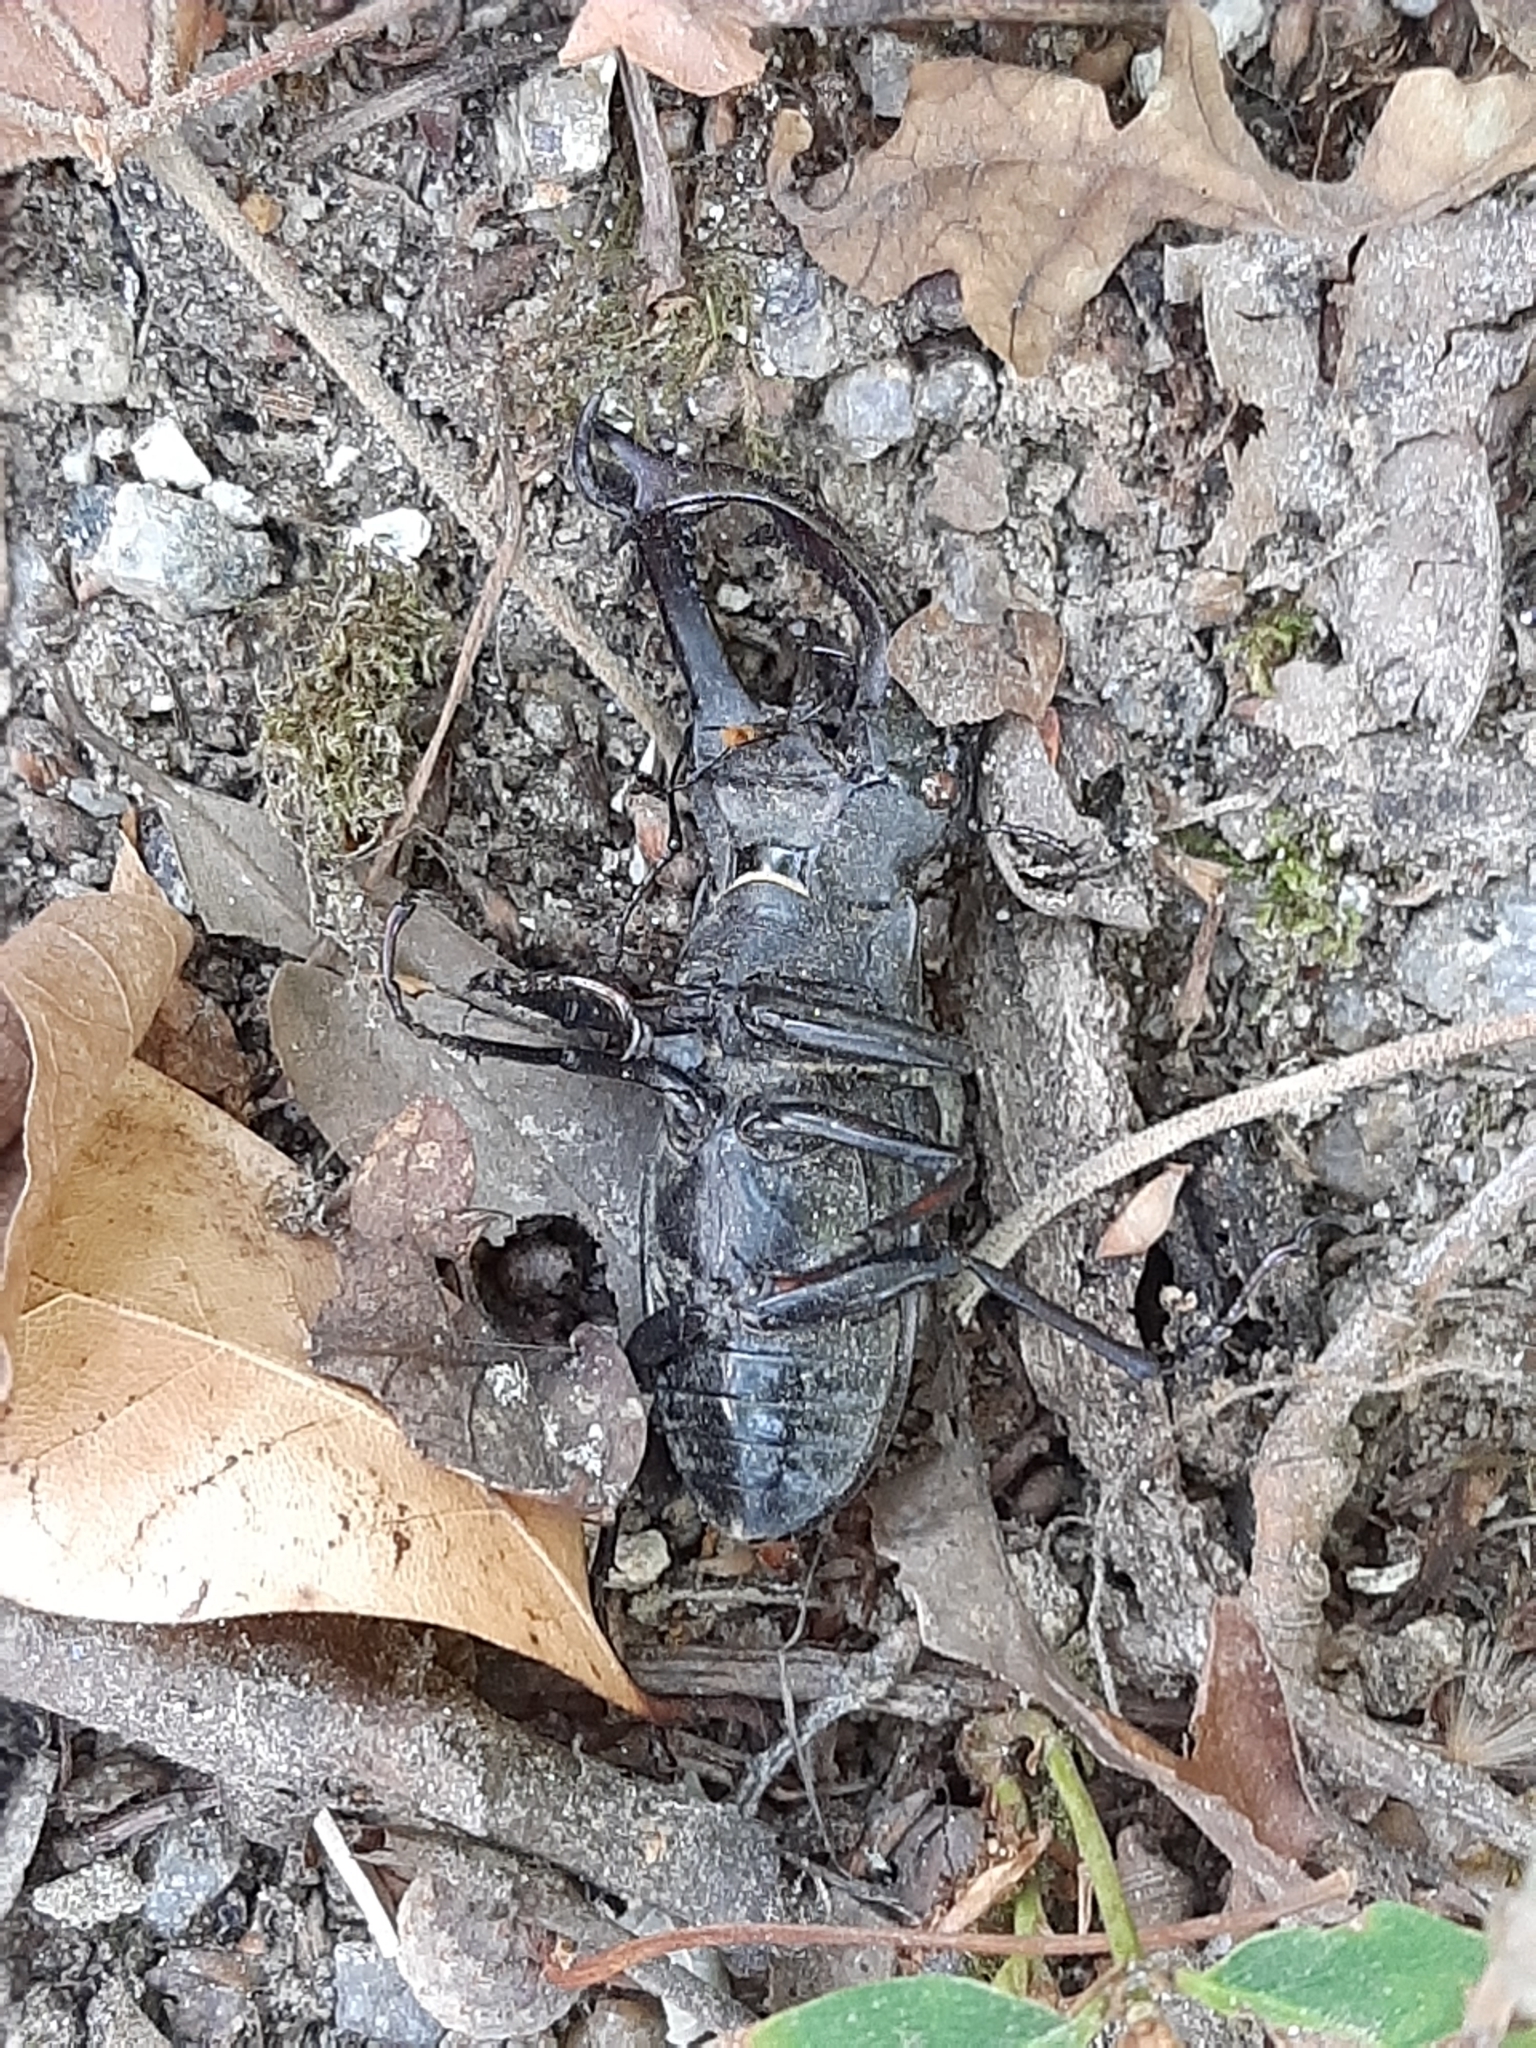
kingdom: Animalia
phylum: Arthropoda
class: Insecta
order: Coleoptera
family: Lucanidae
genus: Lucanus
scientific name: Lucanus cervus
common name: Stag beetle
